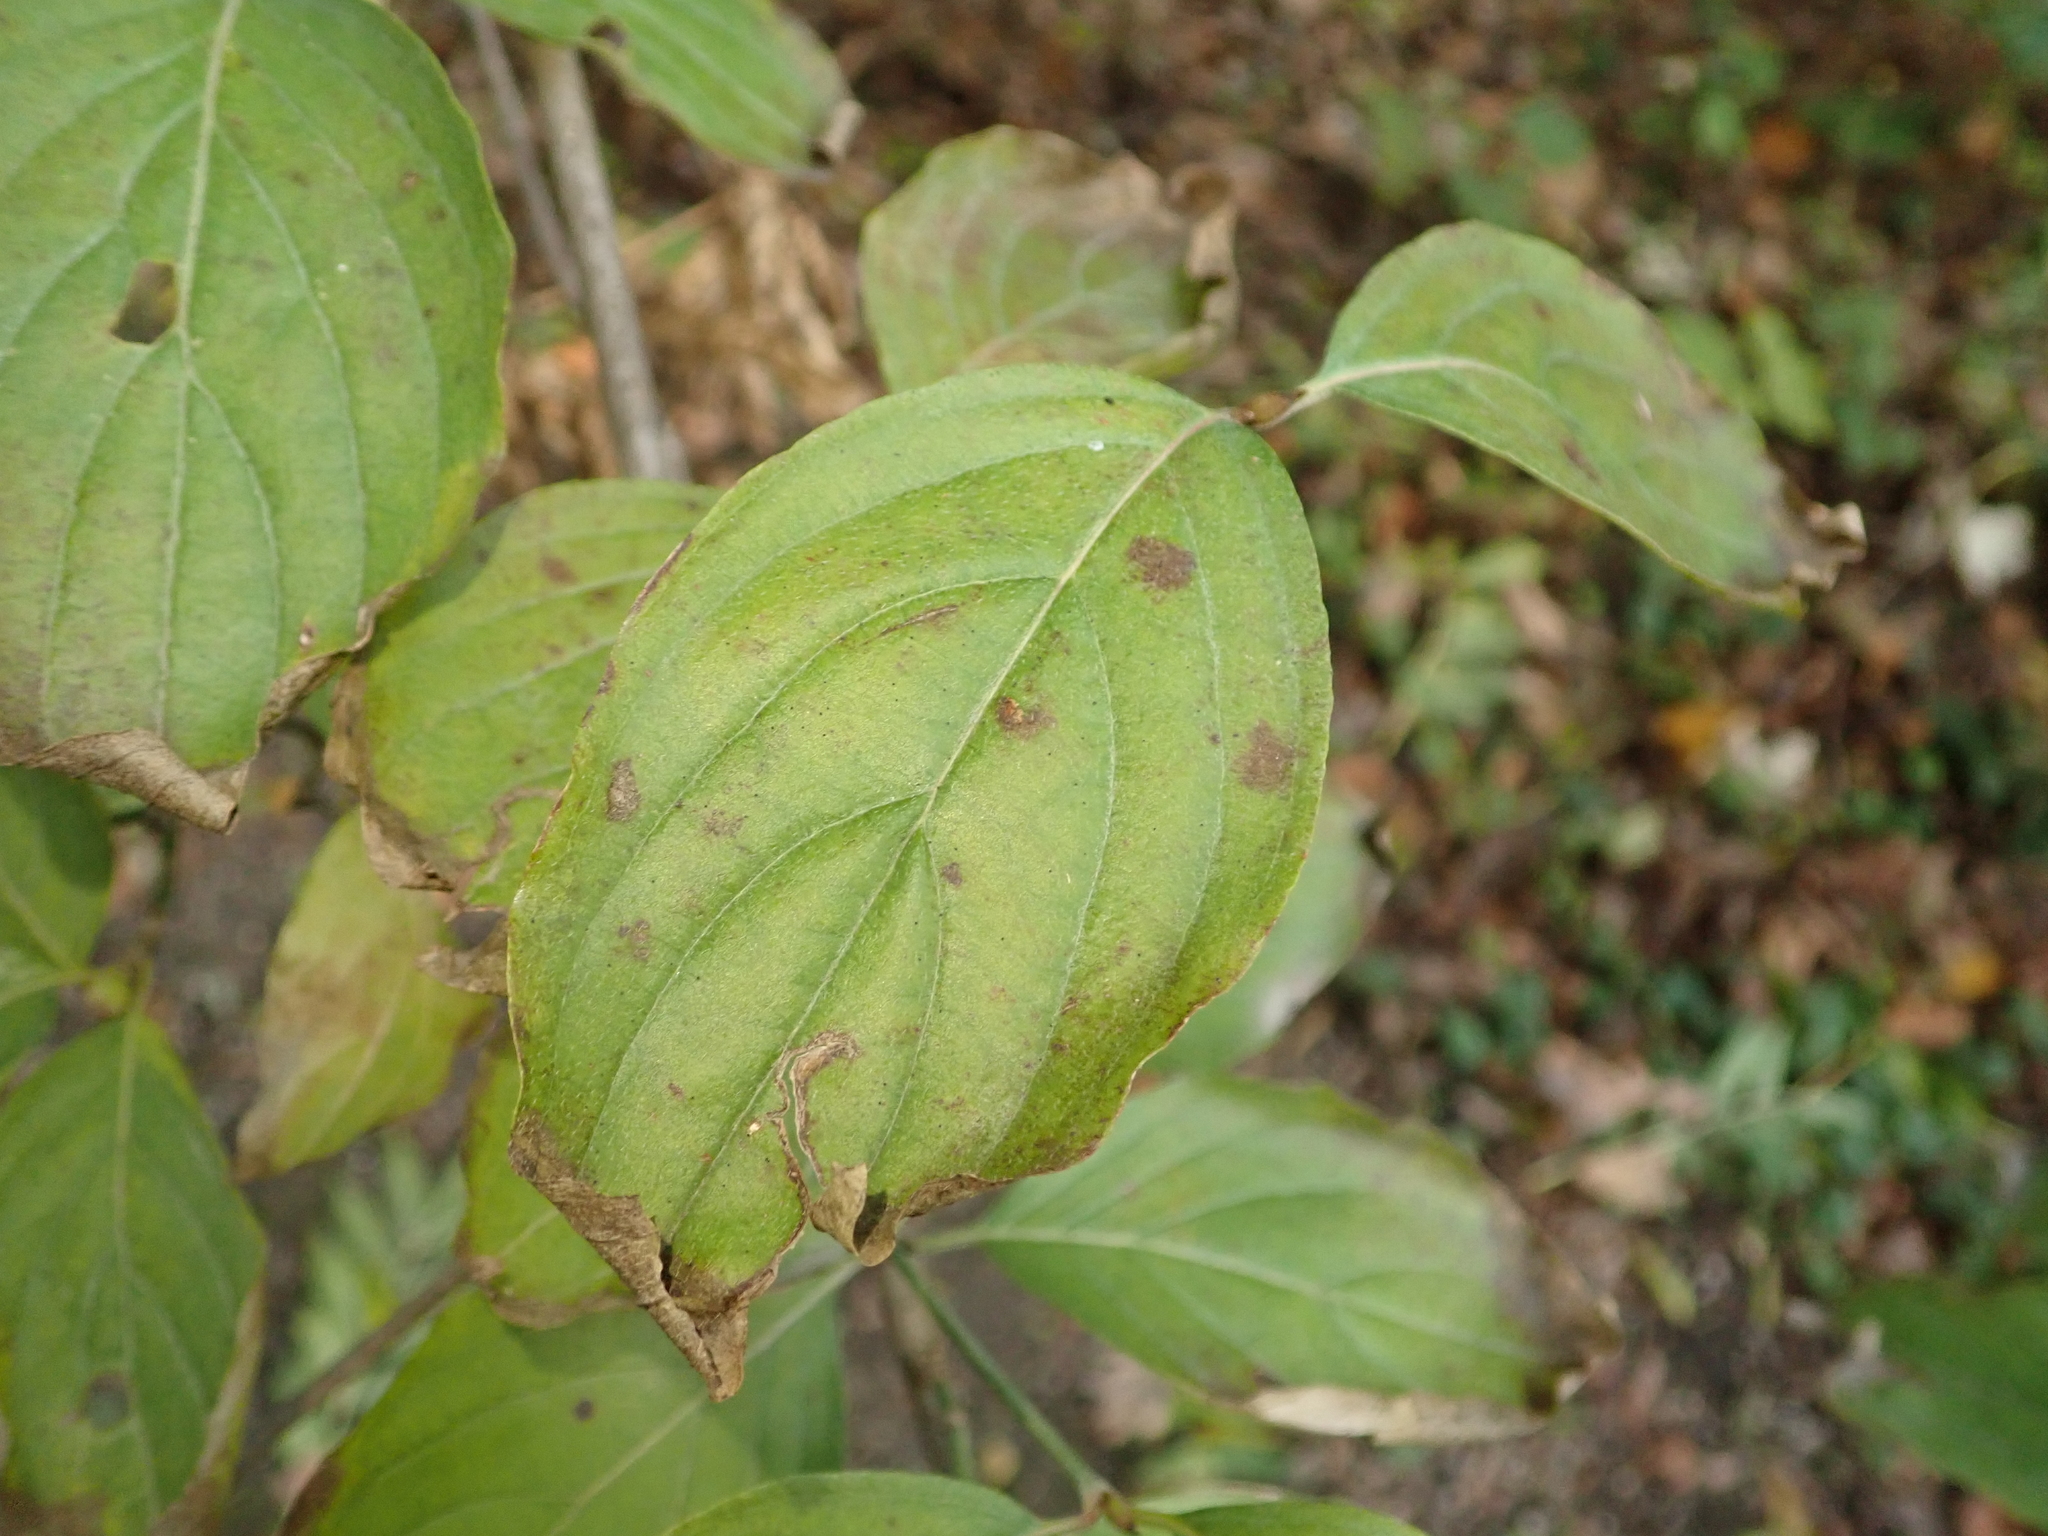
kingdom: Plantae
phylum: Tracheophyta
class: Magnoliopsida
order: Cornales
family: Cornaceae
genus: Cornus
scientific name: Cornus sanguinea
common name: Dogwood
